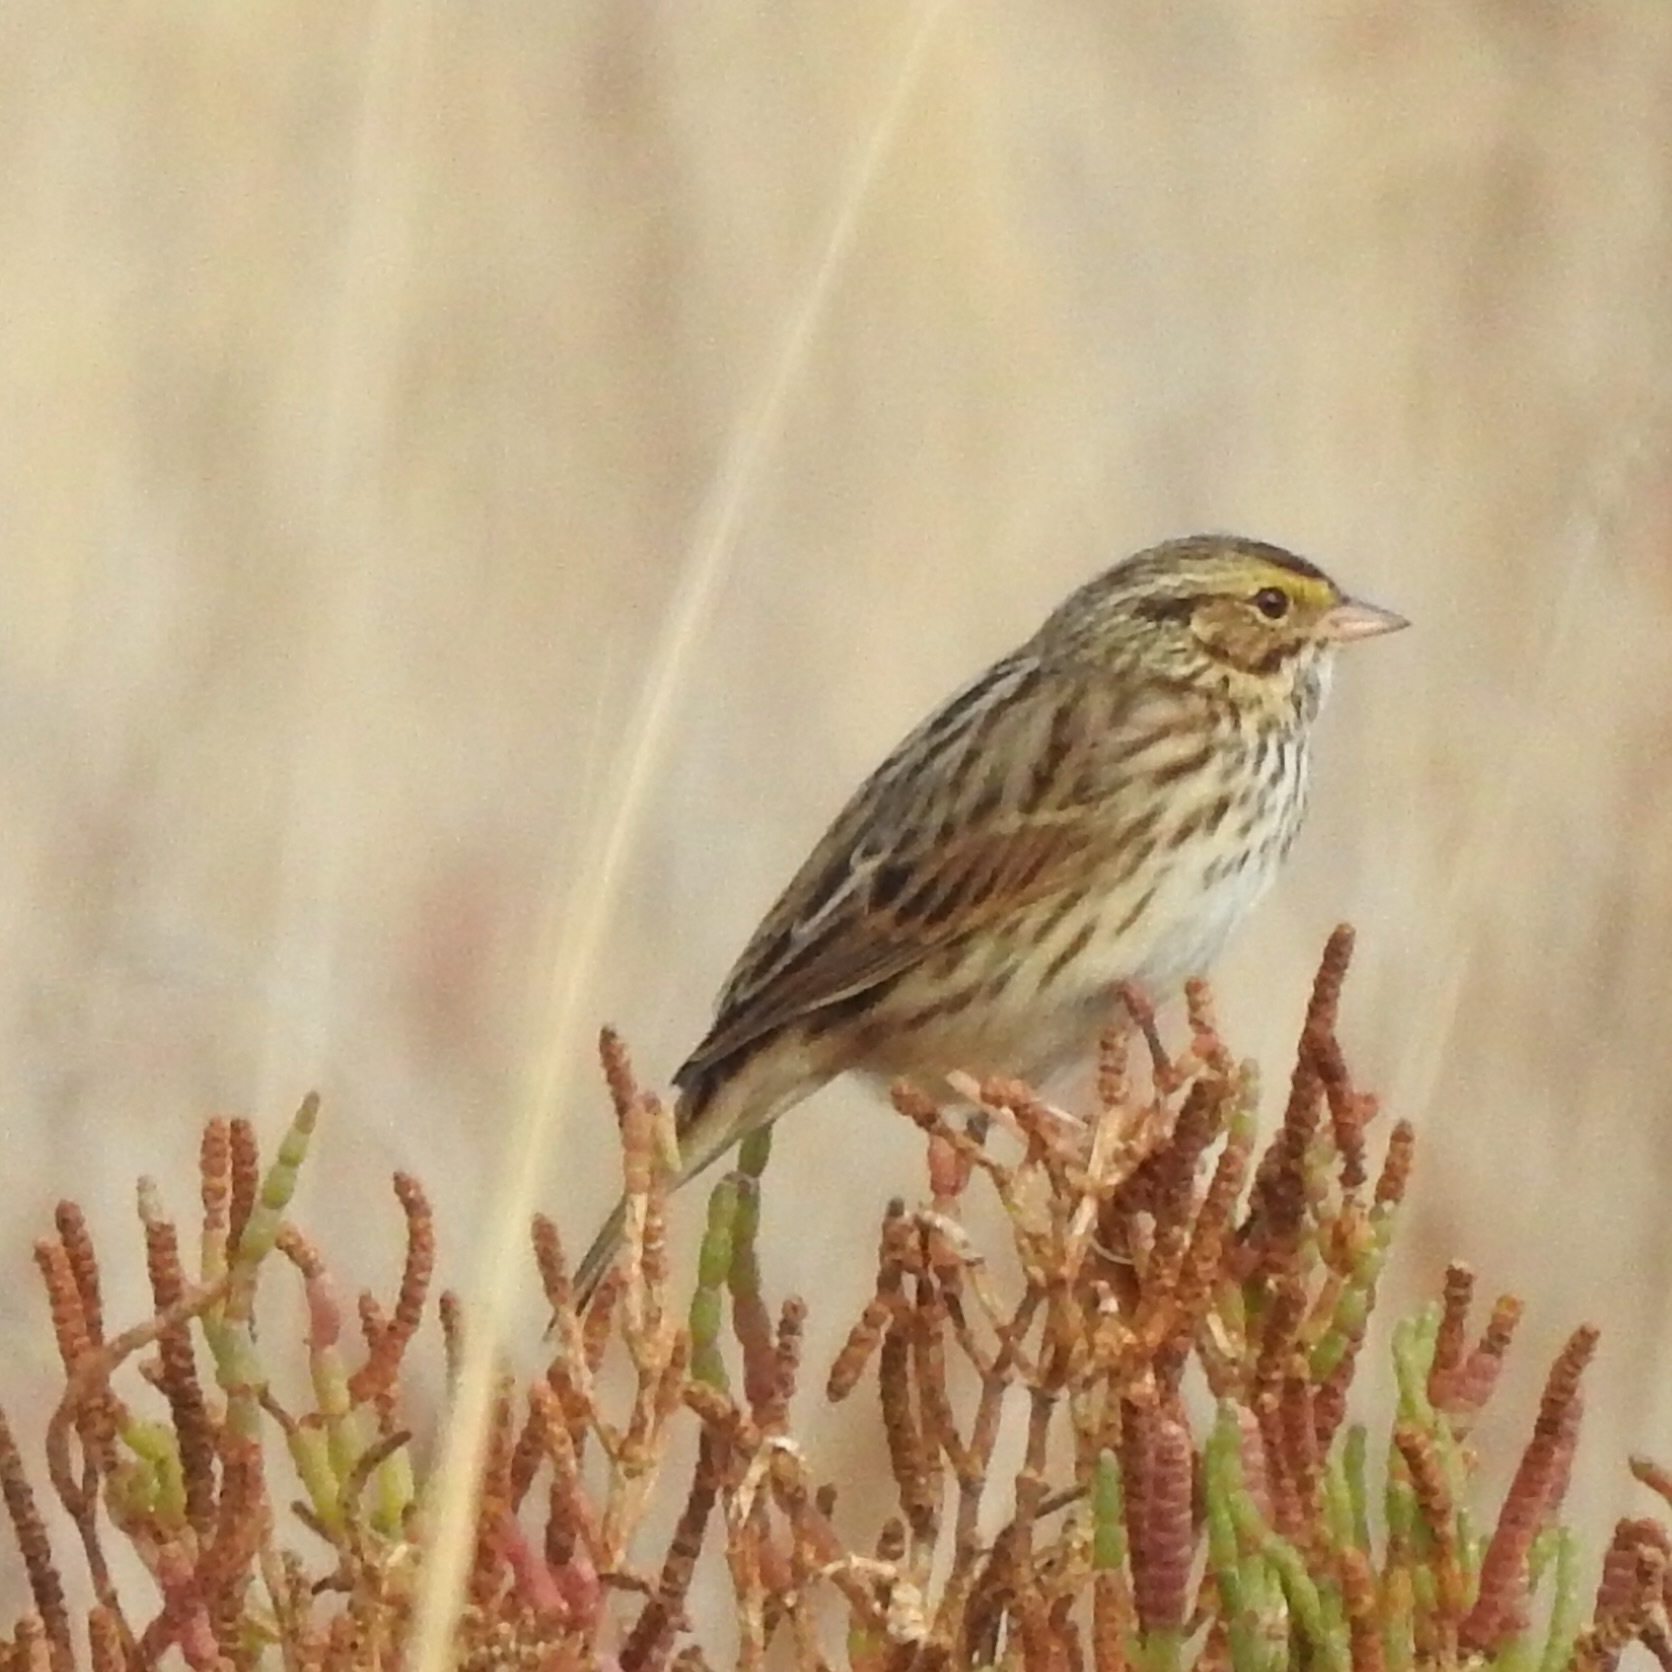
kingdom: Animalia
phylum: Chordata
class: Aves
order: Passeriformes
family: Passerellidae
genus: Passerculus
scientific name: Passerculus sandwichensis
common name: Savannah sparrow
